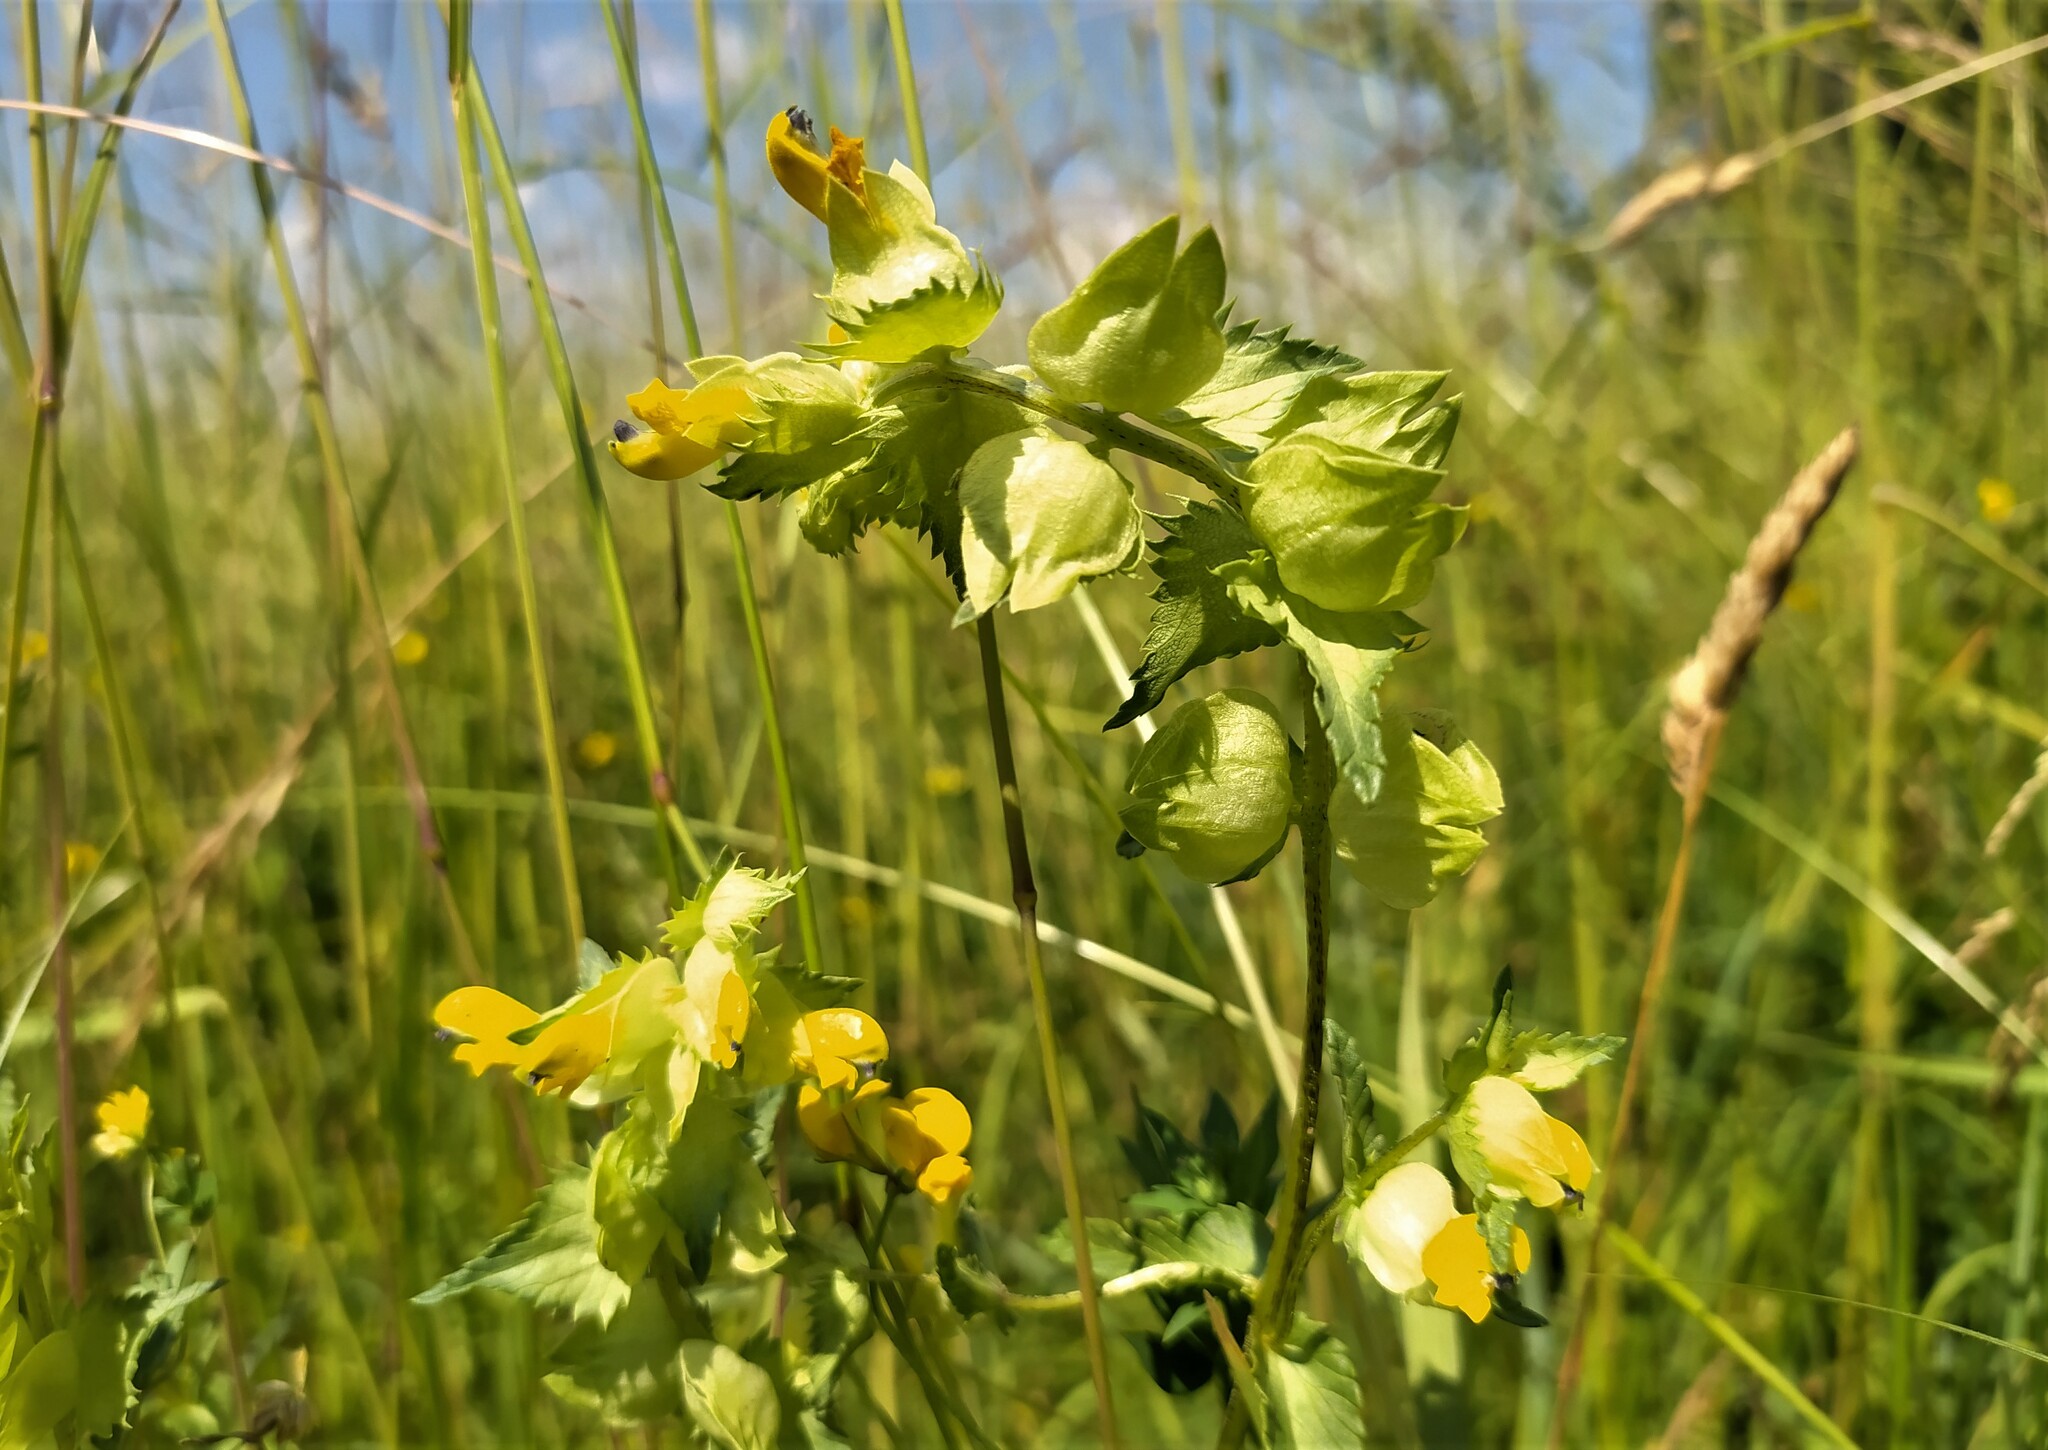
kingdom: Plantae
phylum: Tracheophyta
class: Magnoliopsida
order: Lamiales
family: Orobanchaceae
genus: Rhinanthus
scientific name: Rhinanthus serotinus
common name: Late-flowering yellow rattle
